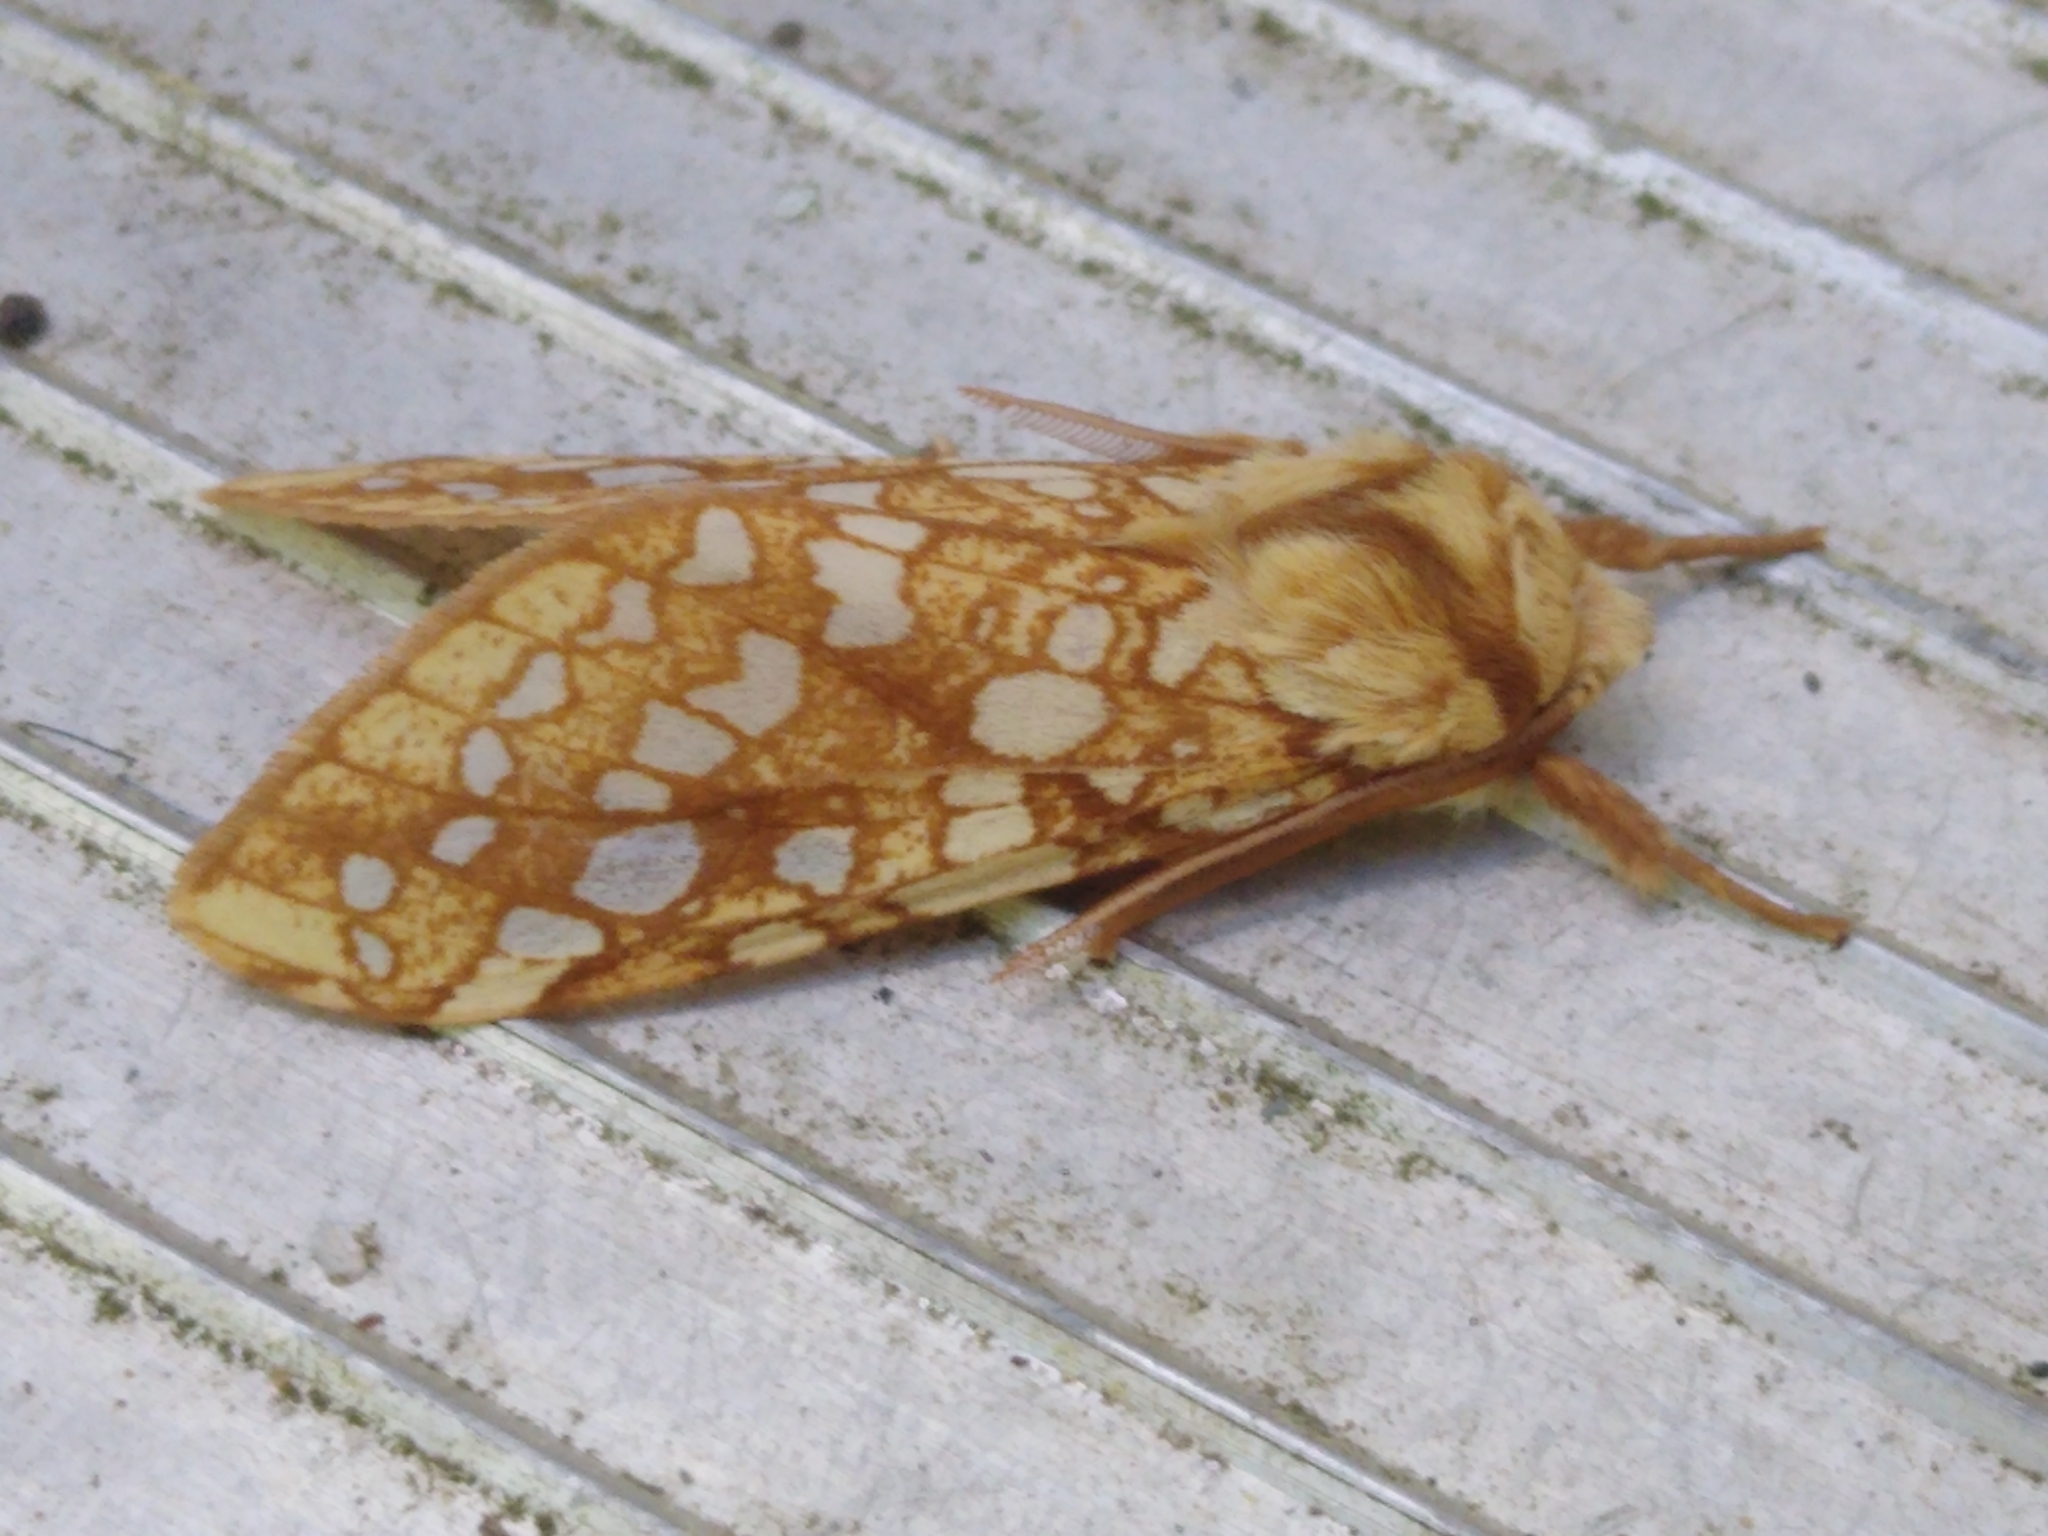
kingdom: Animalia
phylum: Arthropoda
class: Insecta
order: Lepidoptera
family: Erebidae
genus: Lophocampa
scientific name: Lophocampa caryae
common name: Hickory tussock moth
